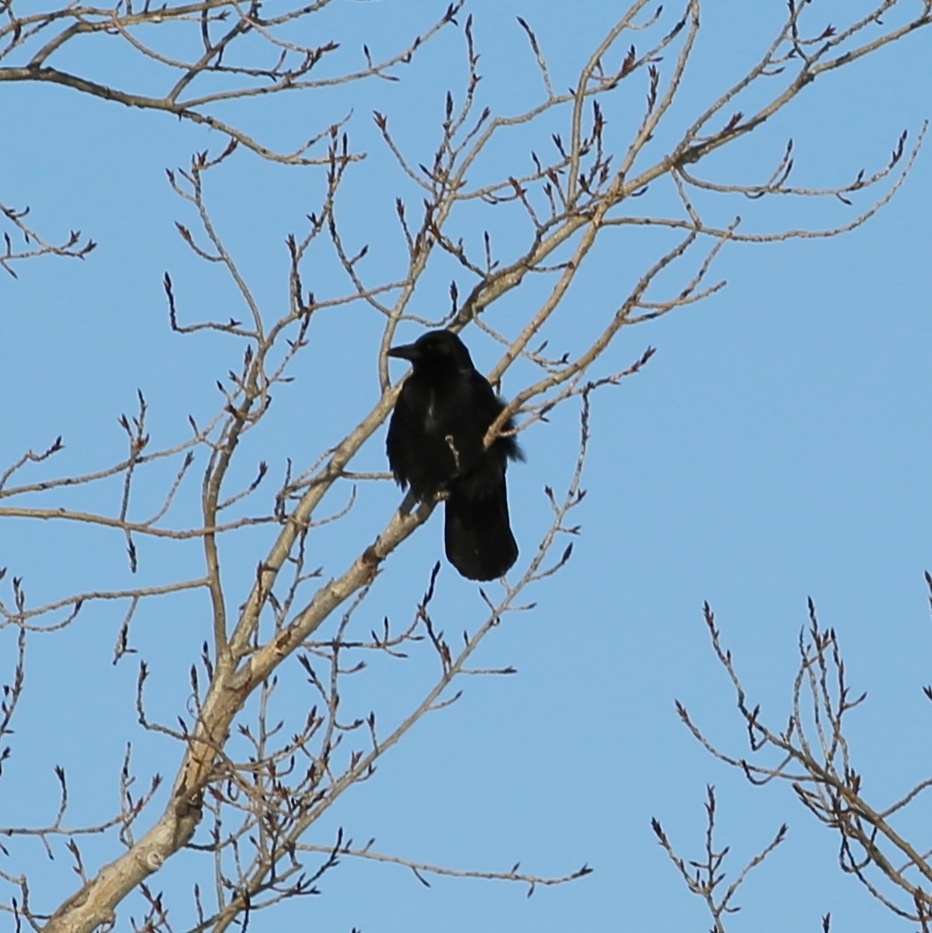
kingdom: Animalia
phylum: Chordata
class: Aves
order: Passeriformes
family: Corvidae
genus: Corvus
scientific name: Corvus corone
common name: Carrion crow
